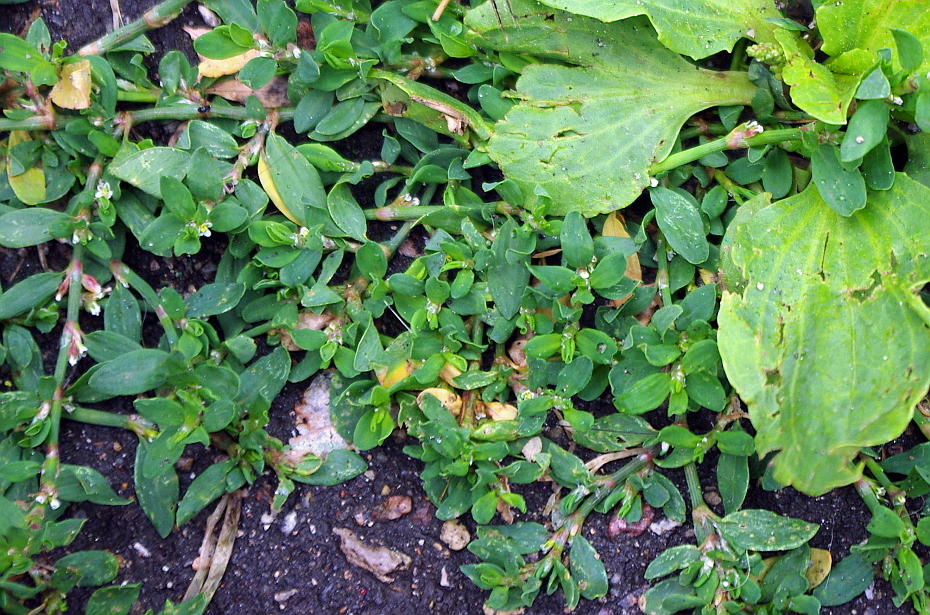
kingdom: Plantae
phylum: Tracheophyta
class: Magnoliopsida
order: Caryophyllales
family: Polygonaceae
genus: Polygonum
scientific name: Polygonum aviculare
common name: Prostrate knotweed
